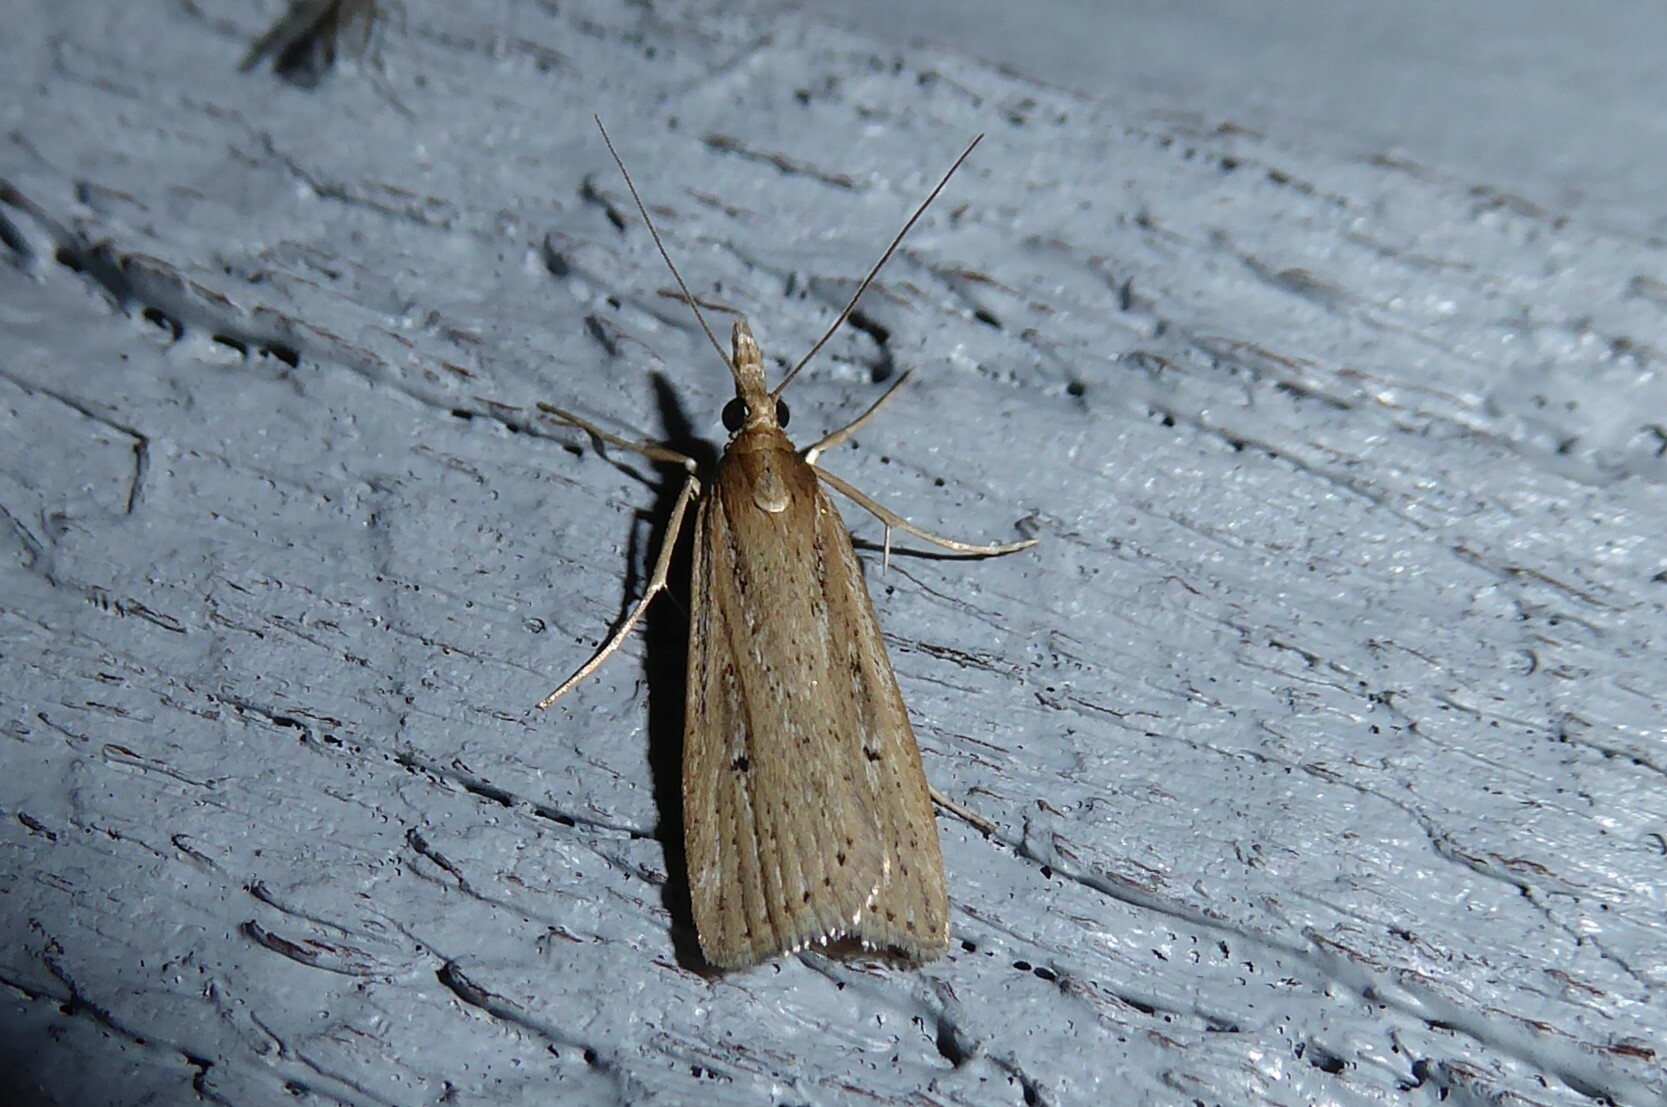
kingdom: Animalia
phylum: Arthropoda
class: Insecta
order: Lepidoptera
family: Crambidae
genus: Eudonia
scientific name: Eudonia sabulosella
